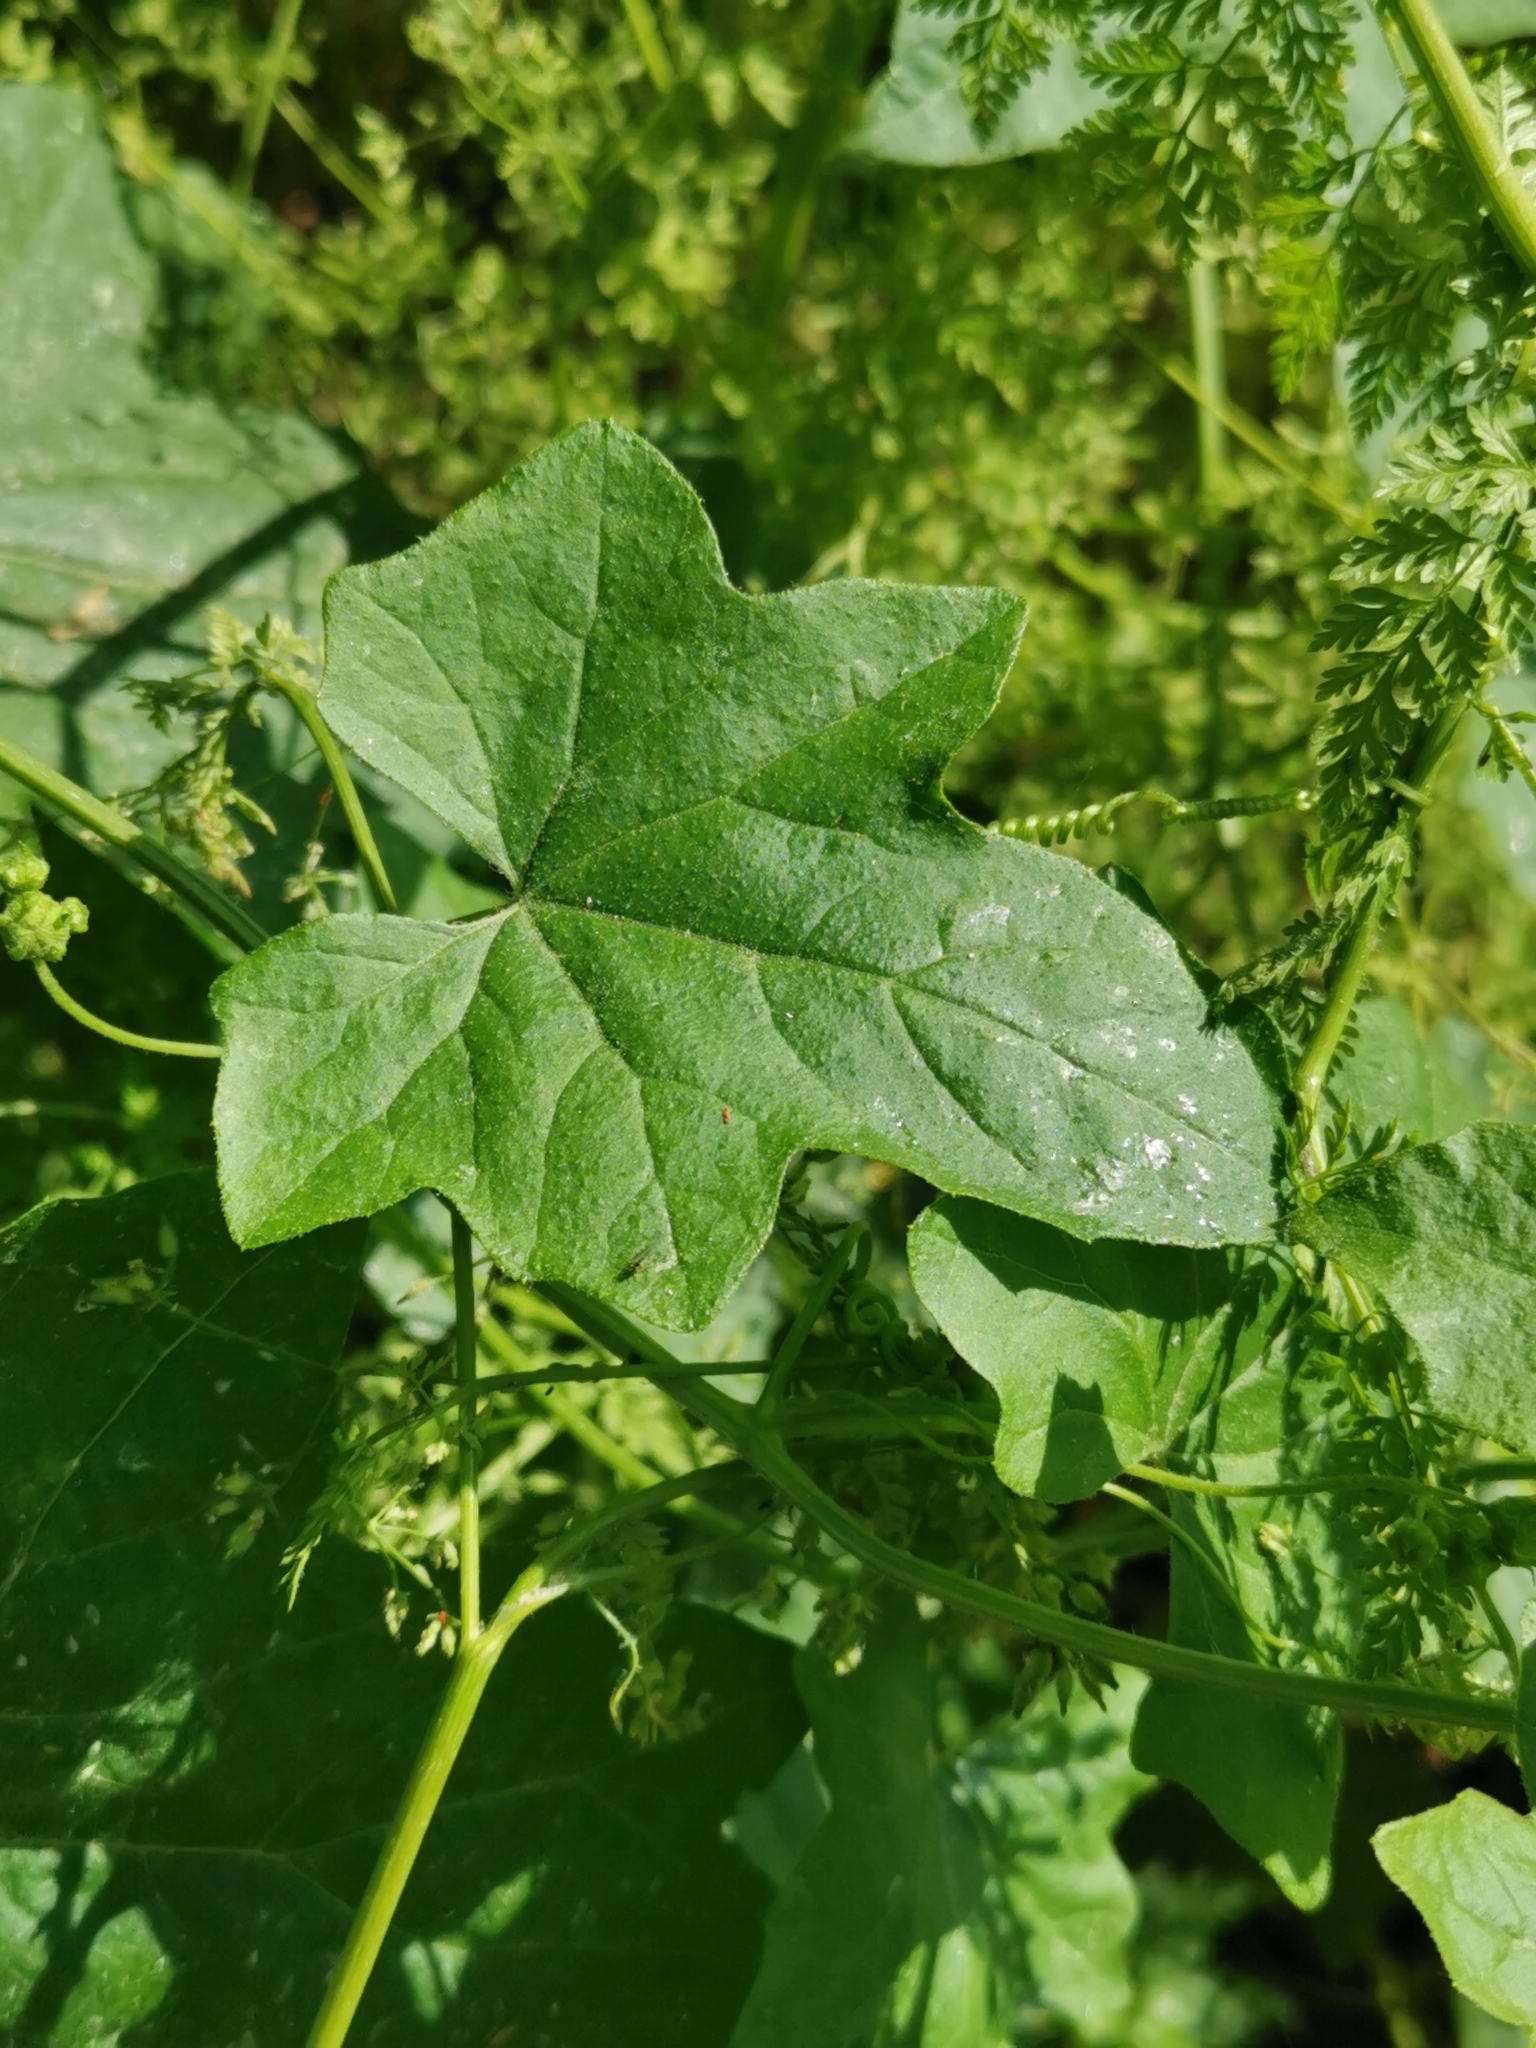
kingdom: Plantae
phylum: Tracheophyta
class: Magnoliopsida
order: Cucurbitales
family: Cucurbitaceae
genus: Bryonia
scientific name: Bryonia cretica
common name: Cretan bryony
